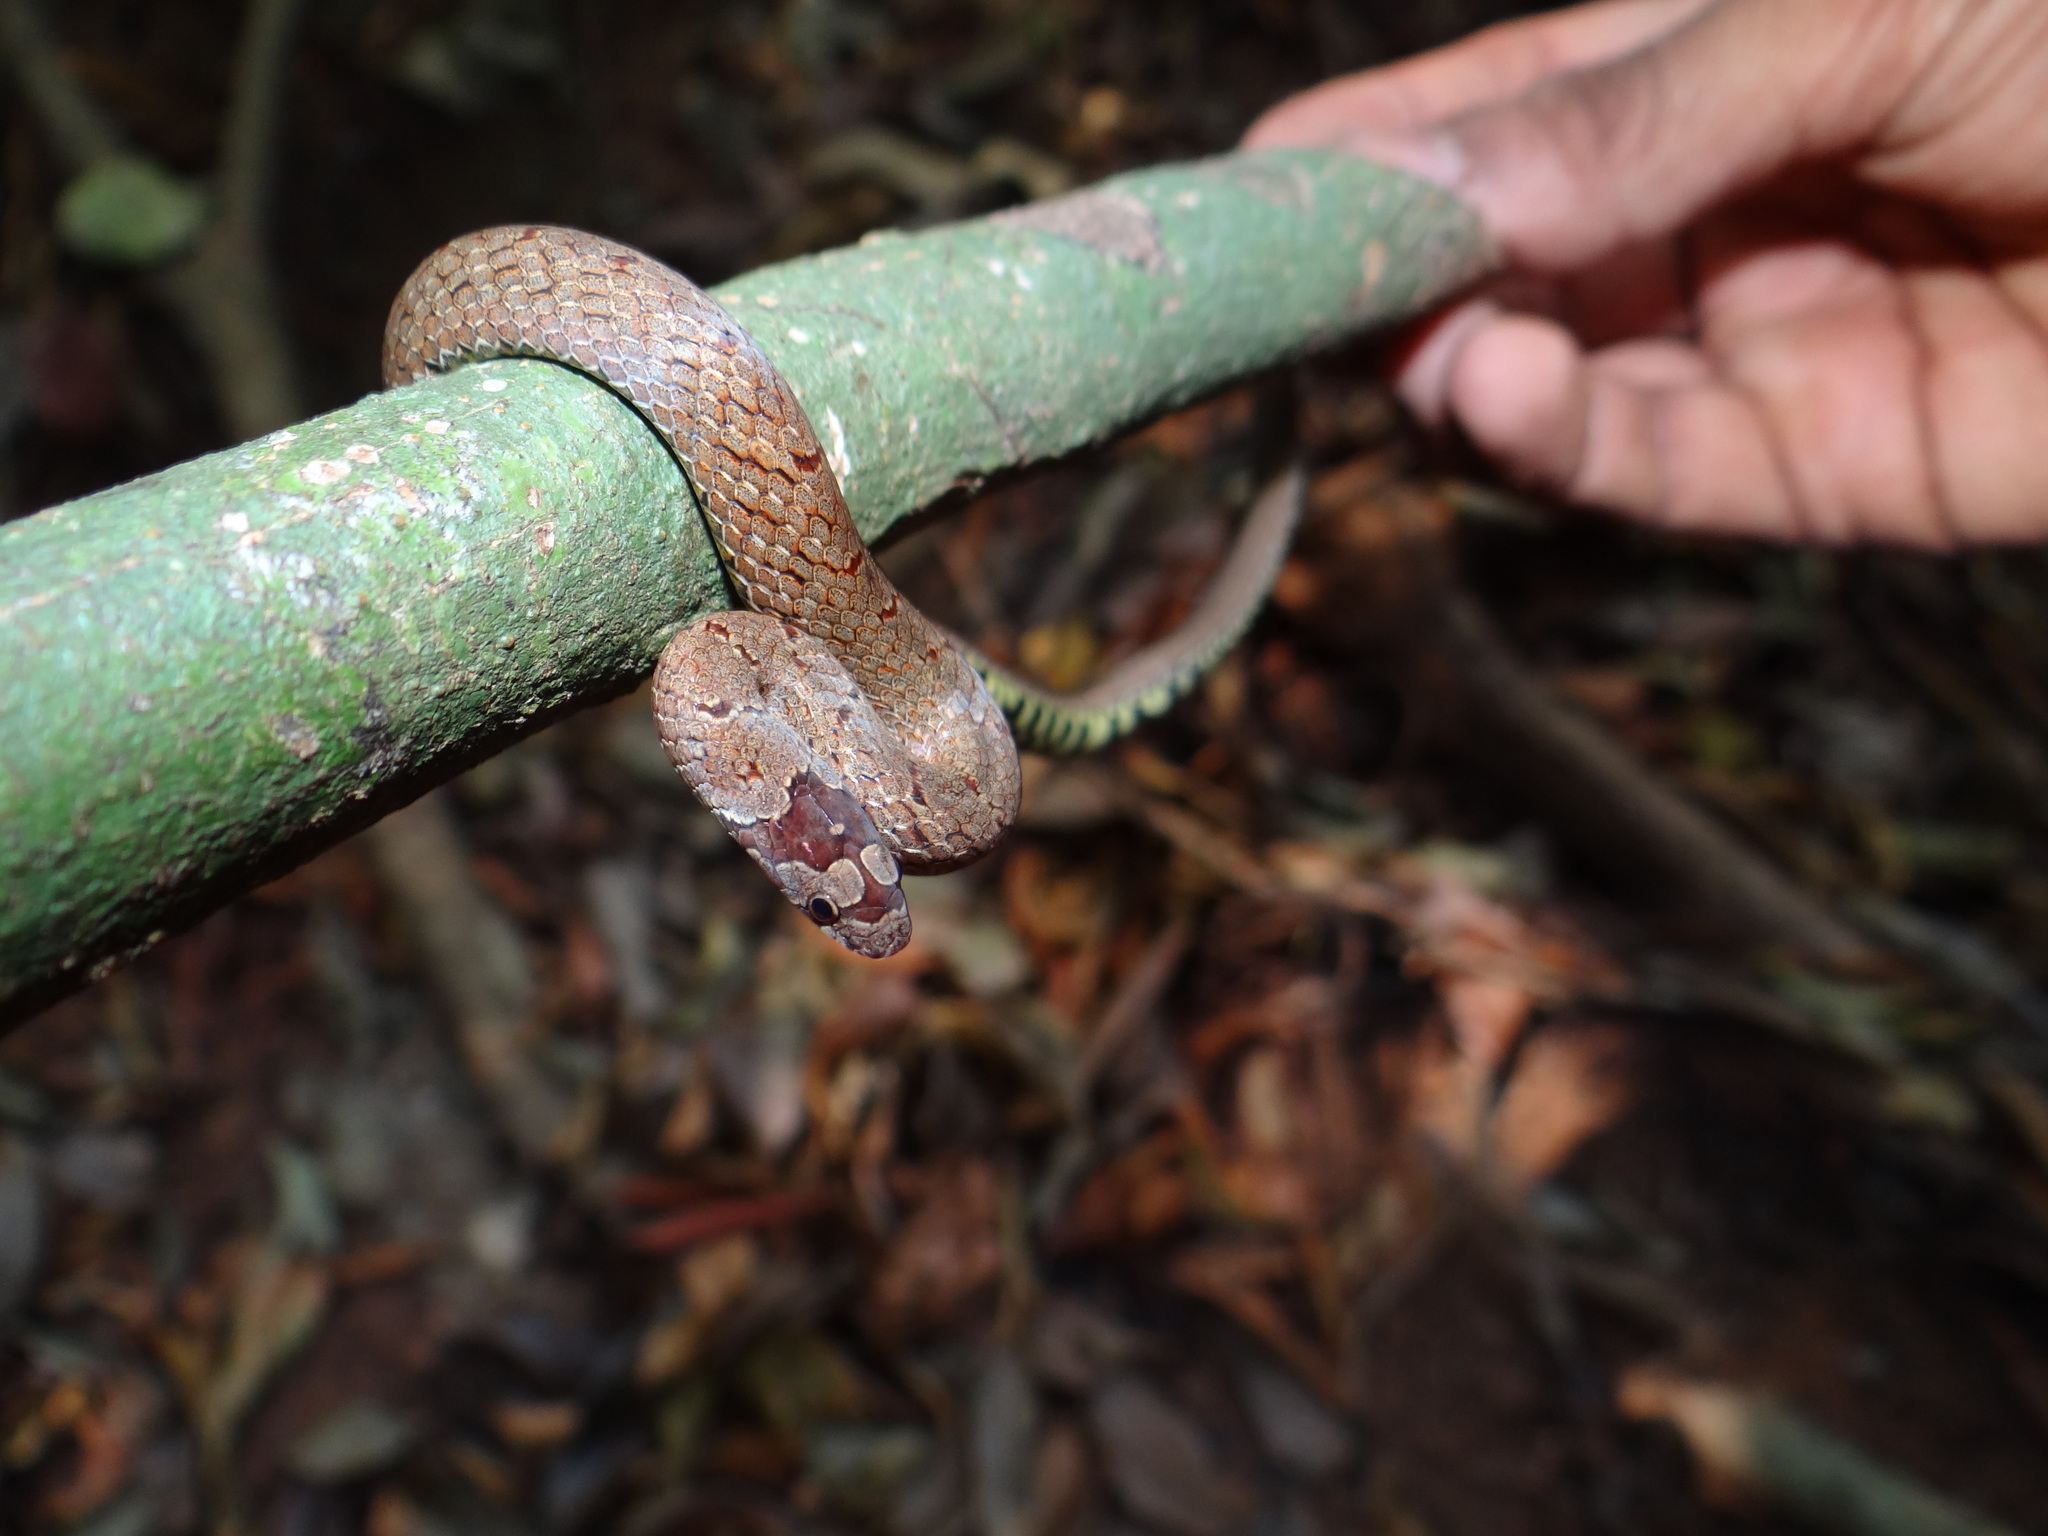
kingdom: Animalia
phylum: Chordata
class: Squamata
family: Colubridae
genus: Oligodon
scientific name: Oligodon affinis
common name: Malabar brown kukri snake
